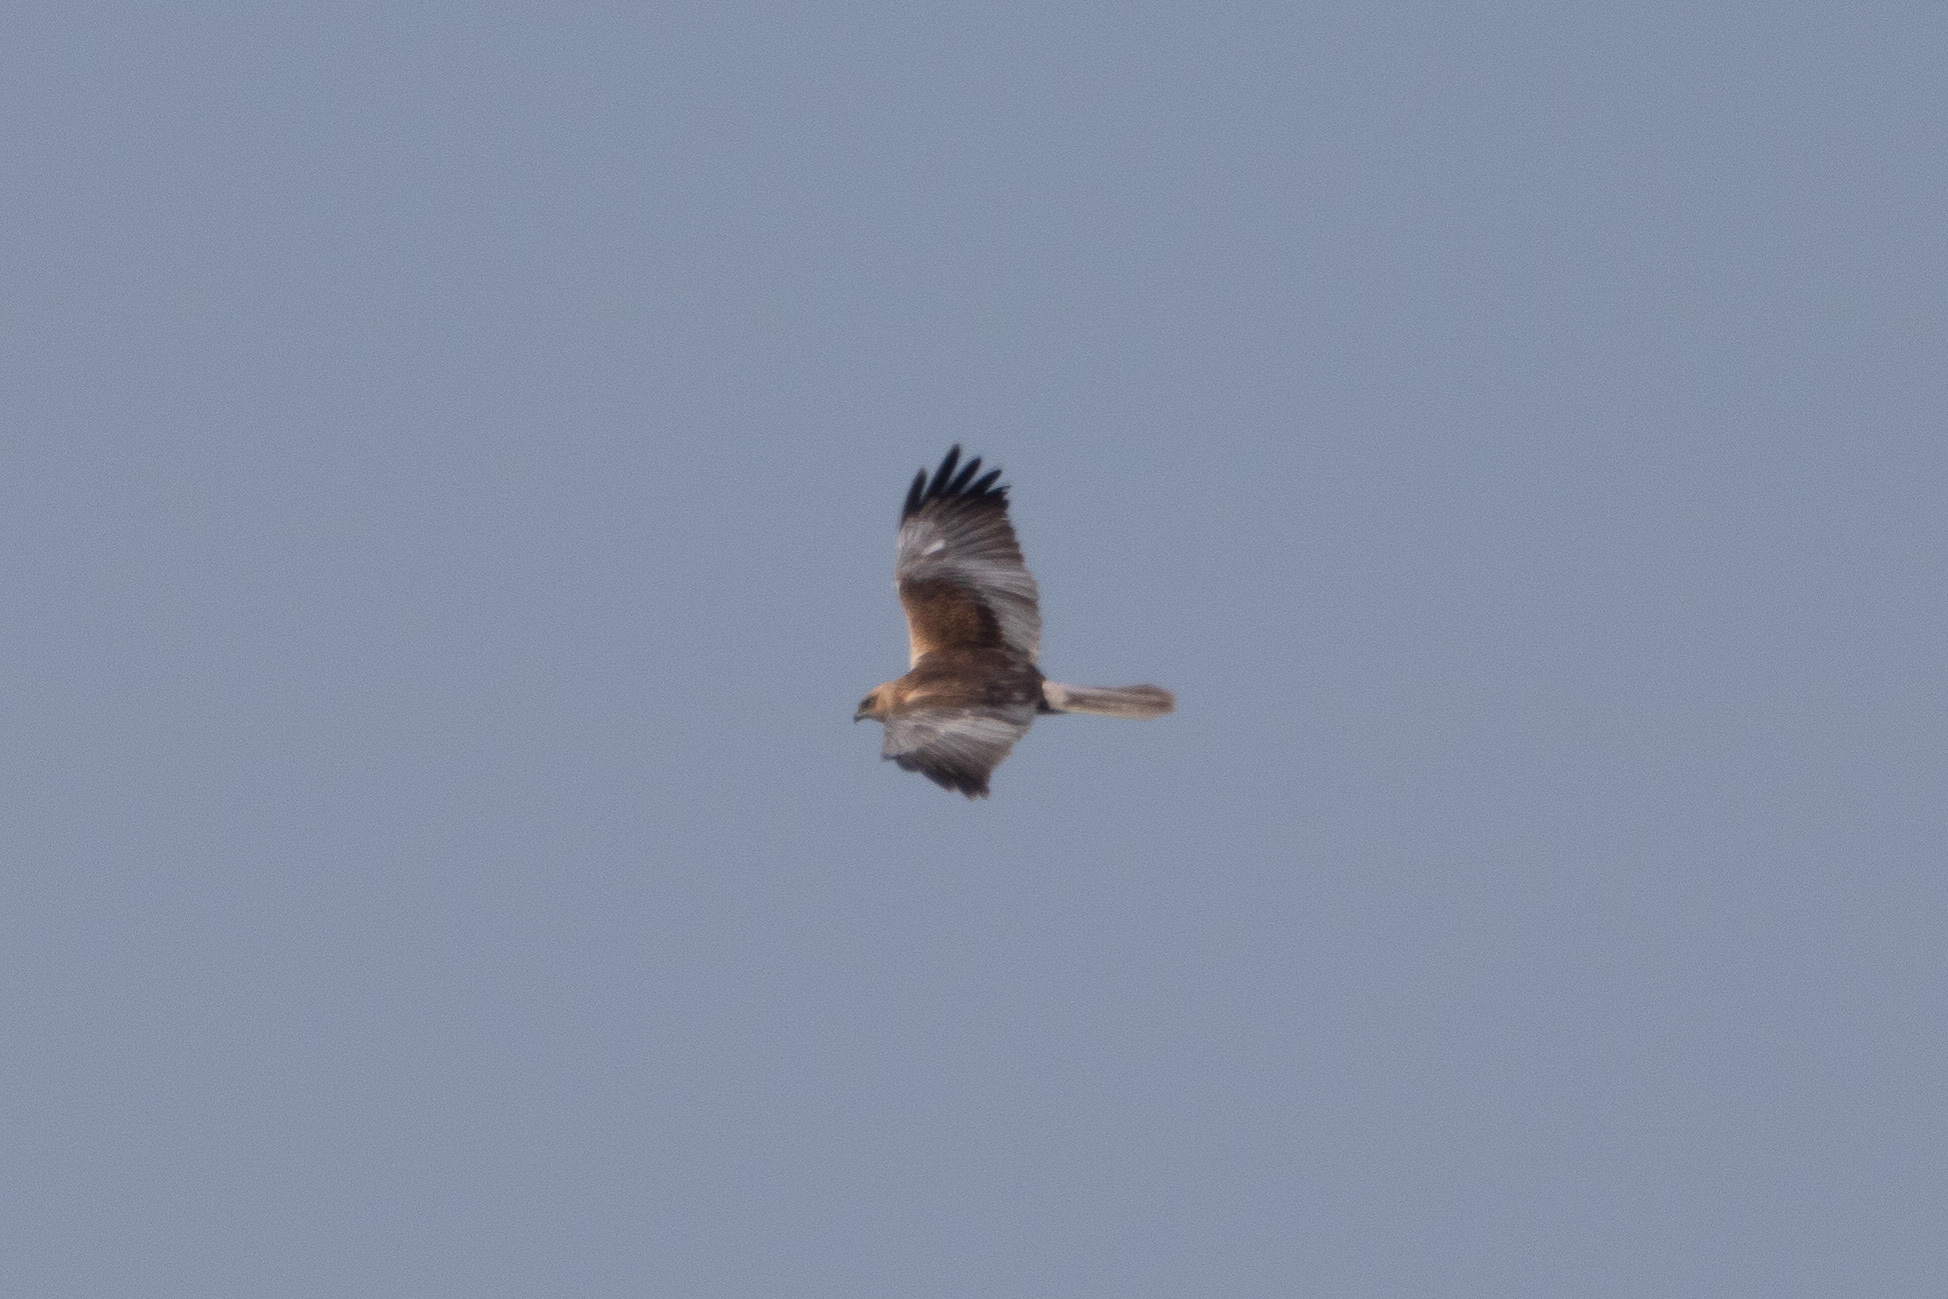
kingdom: Animalia
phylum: Chordata
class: Aves
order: Accipitriformes
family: Accipitridae
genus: Circus
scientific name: Circus aeruginosus
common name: Western marsh harrier
